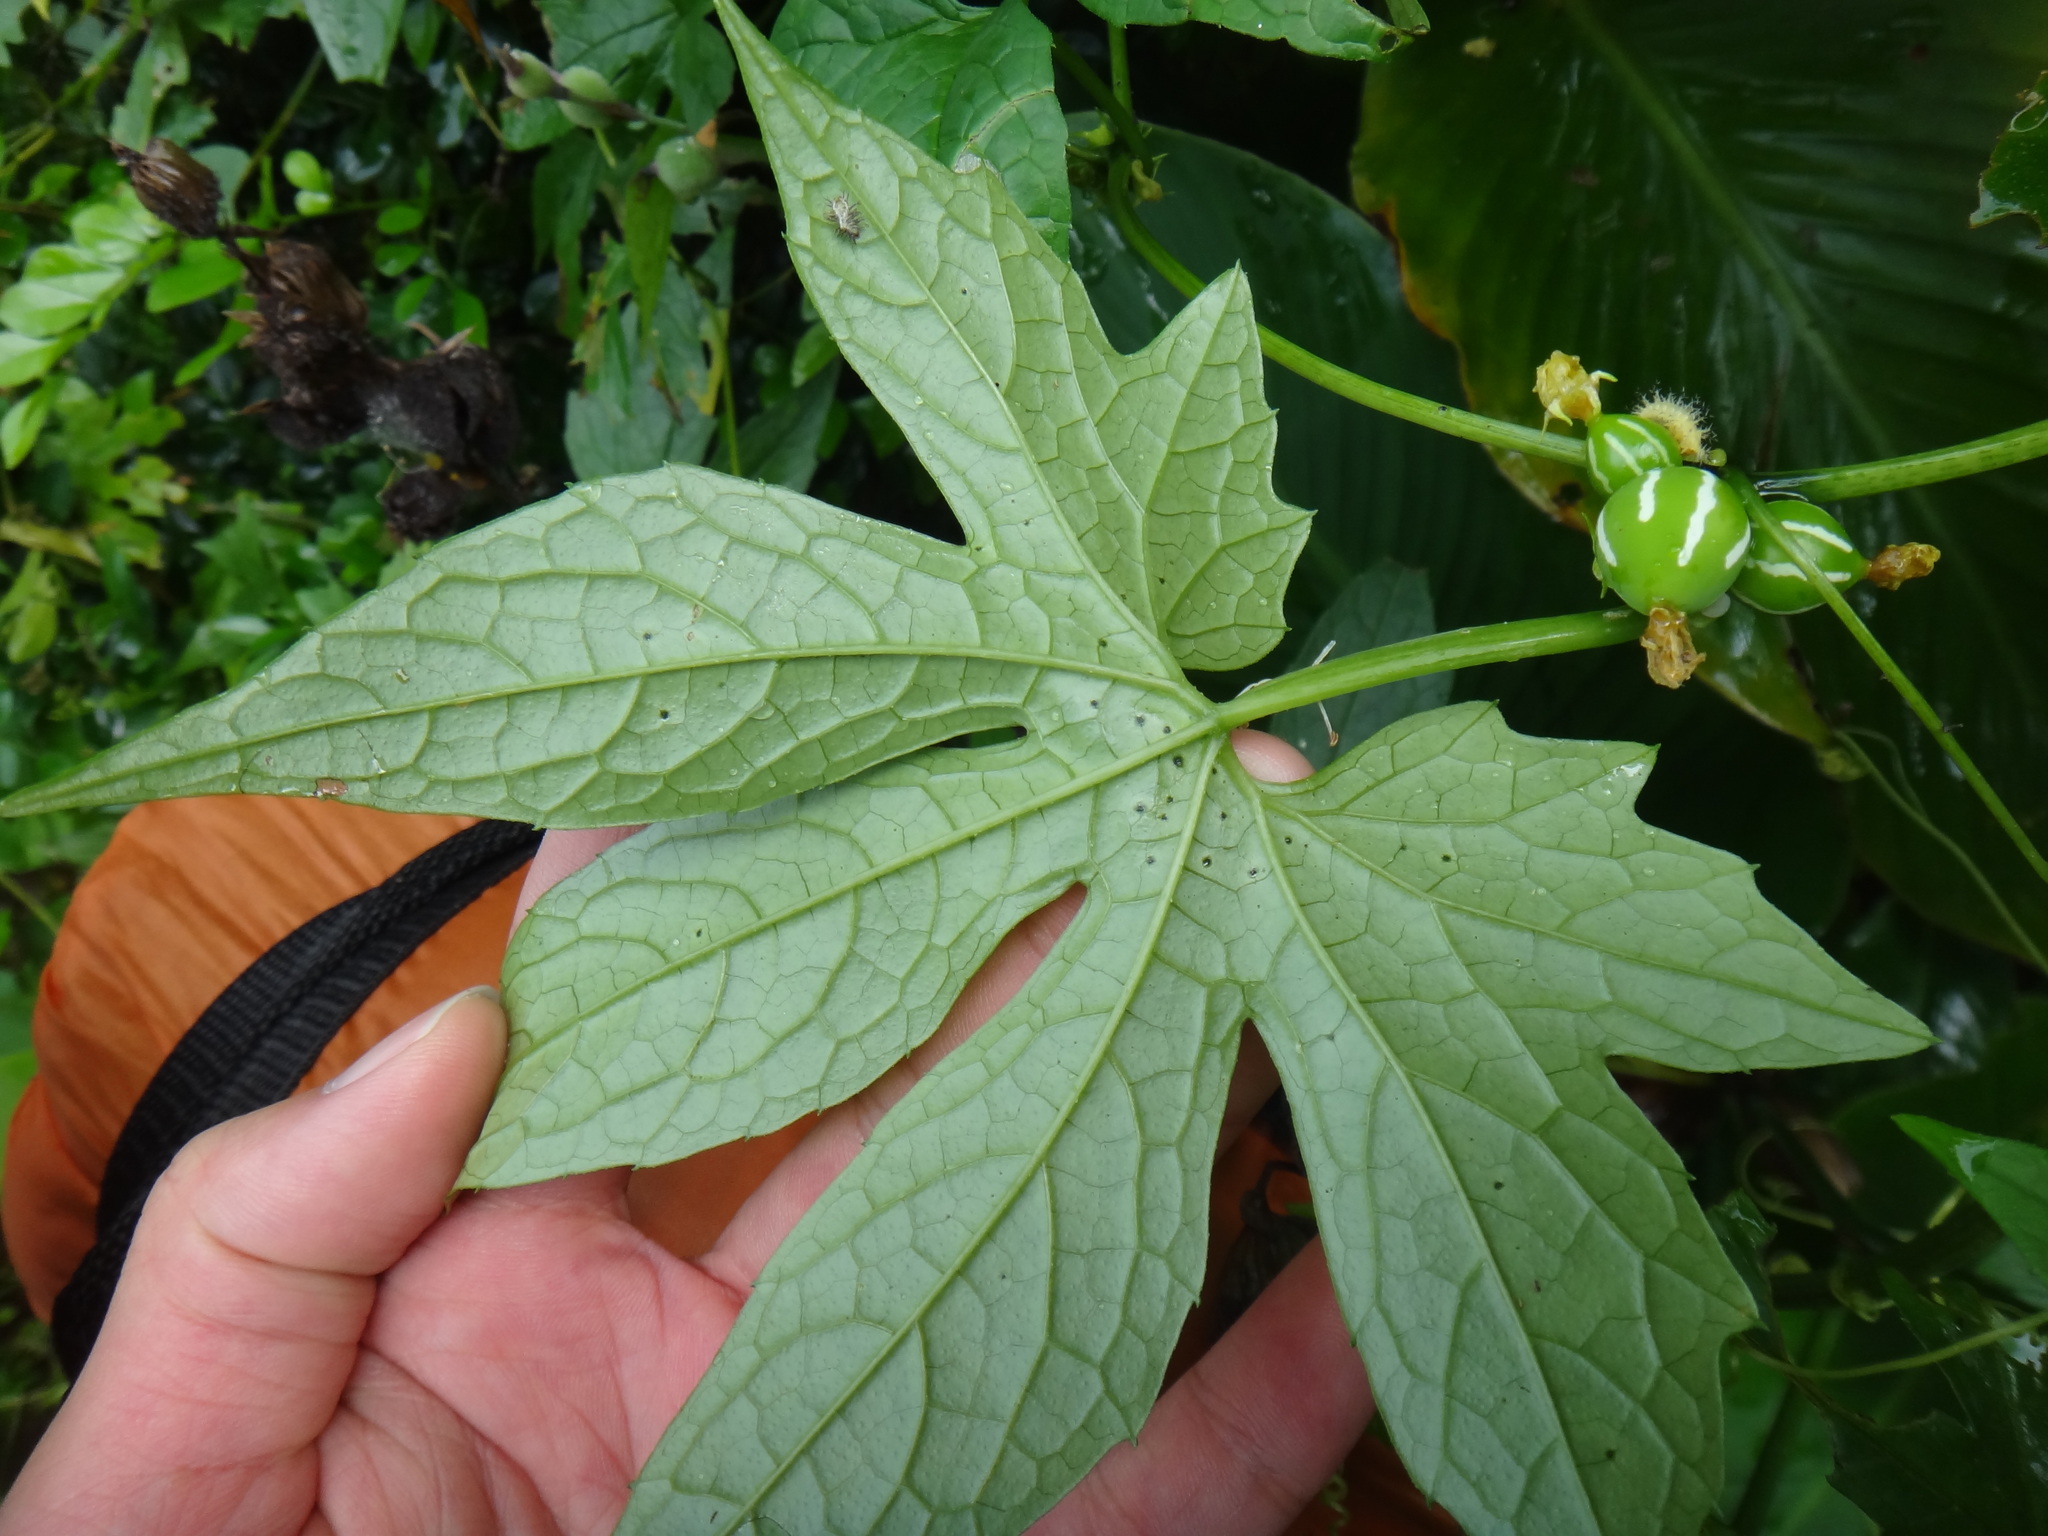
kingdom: Plantae
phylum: Tracheophyta
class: Magnoliopsida
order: Cucurbitales
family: Cucurbitaceae
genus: Diplocyclos
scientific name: Diplocyclos palmatus
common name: Striped-cucumber
